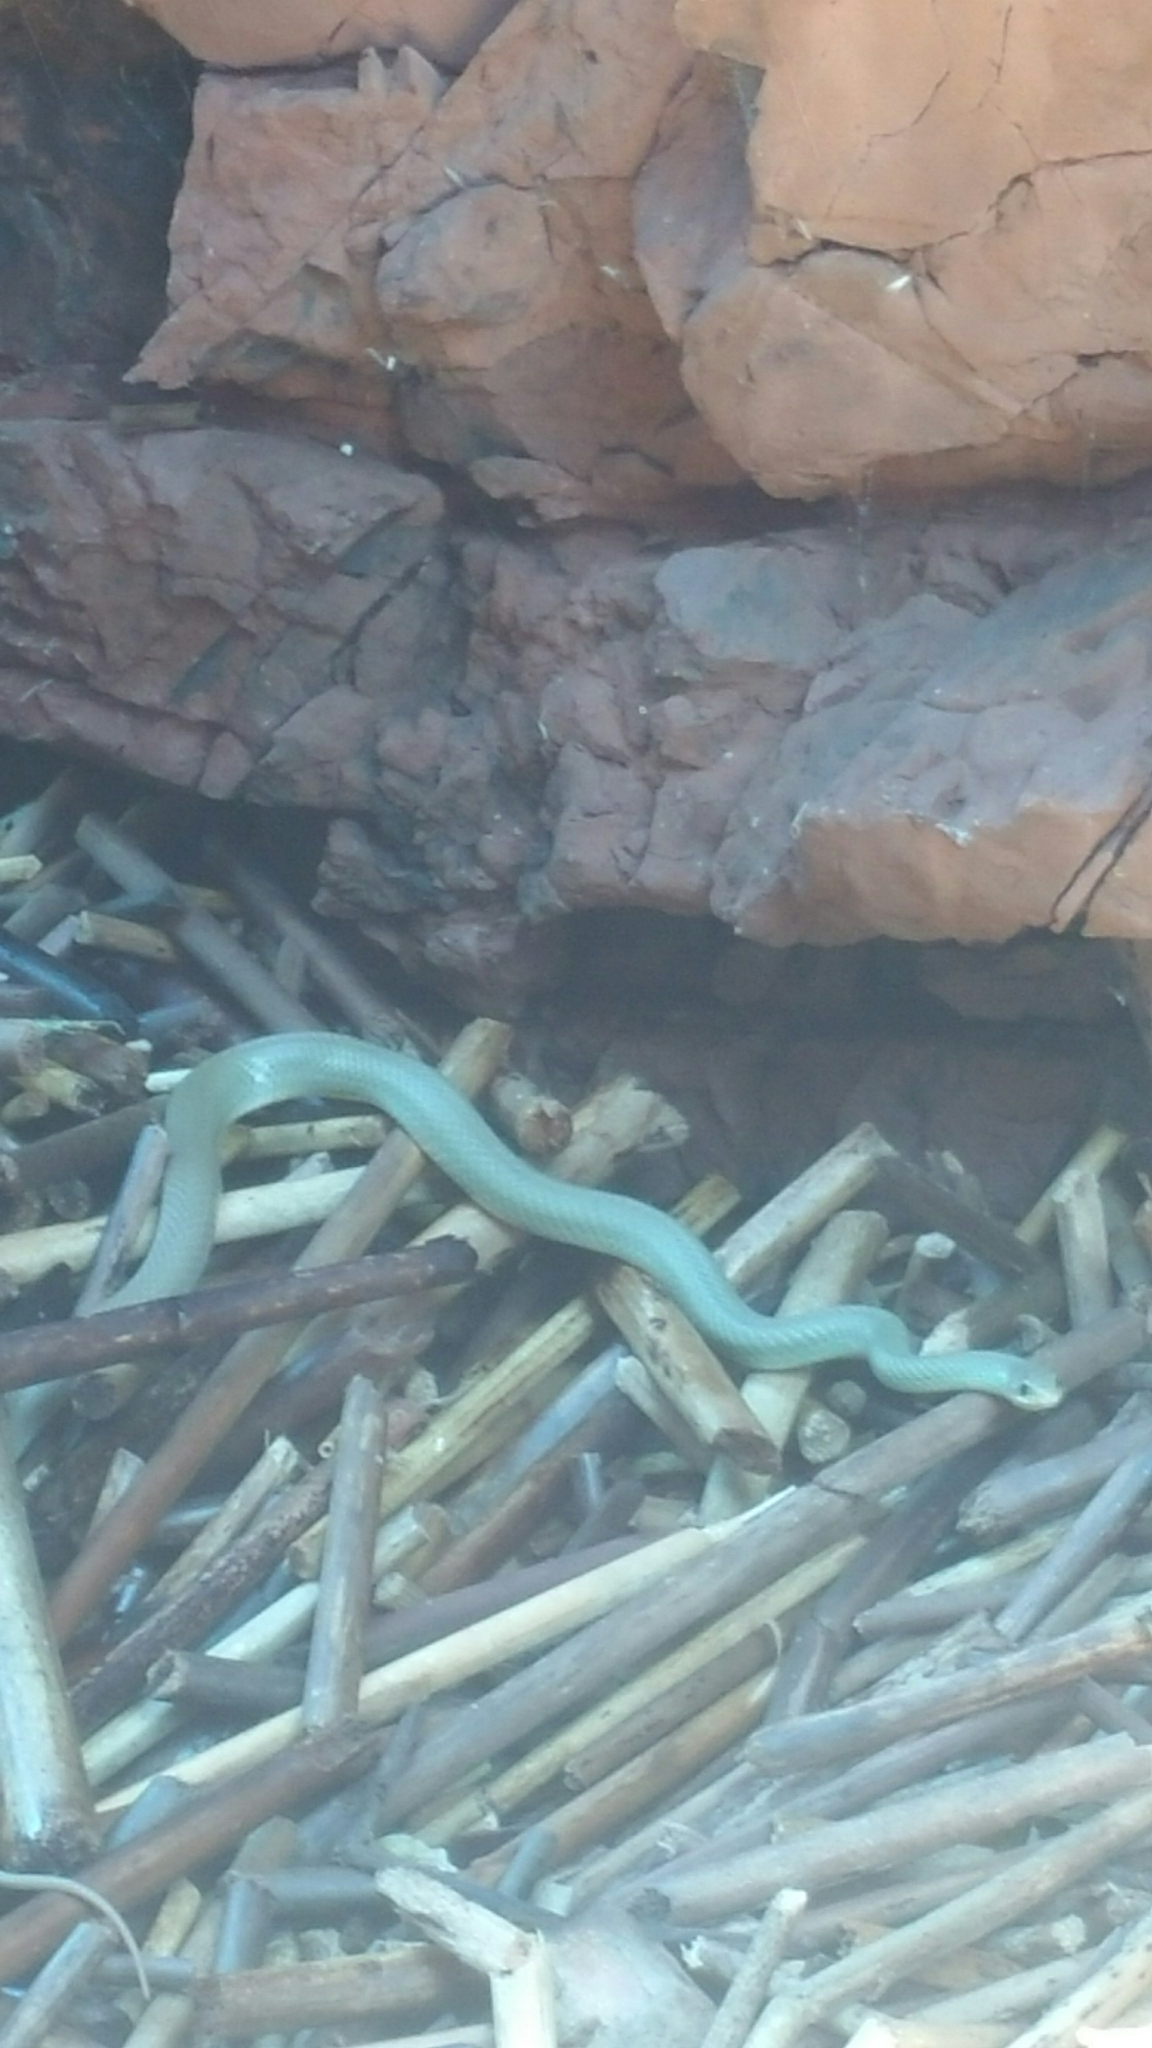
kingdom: Animalia
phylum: Chordata
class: Squamata
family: Colubridae
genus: Coluber
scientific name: Coluber constrictor
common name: Eastern racer
